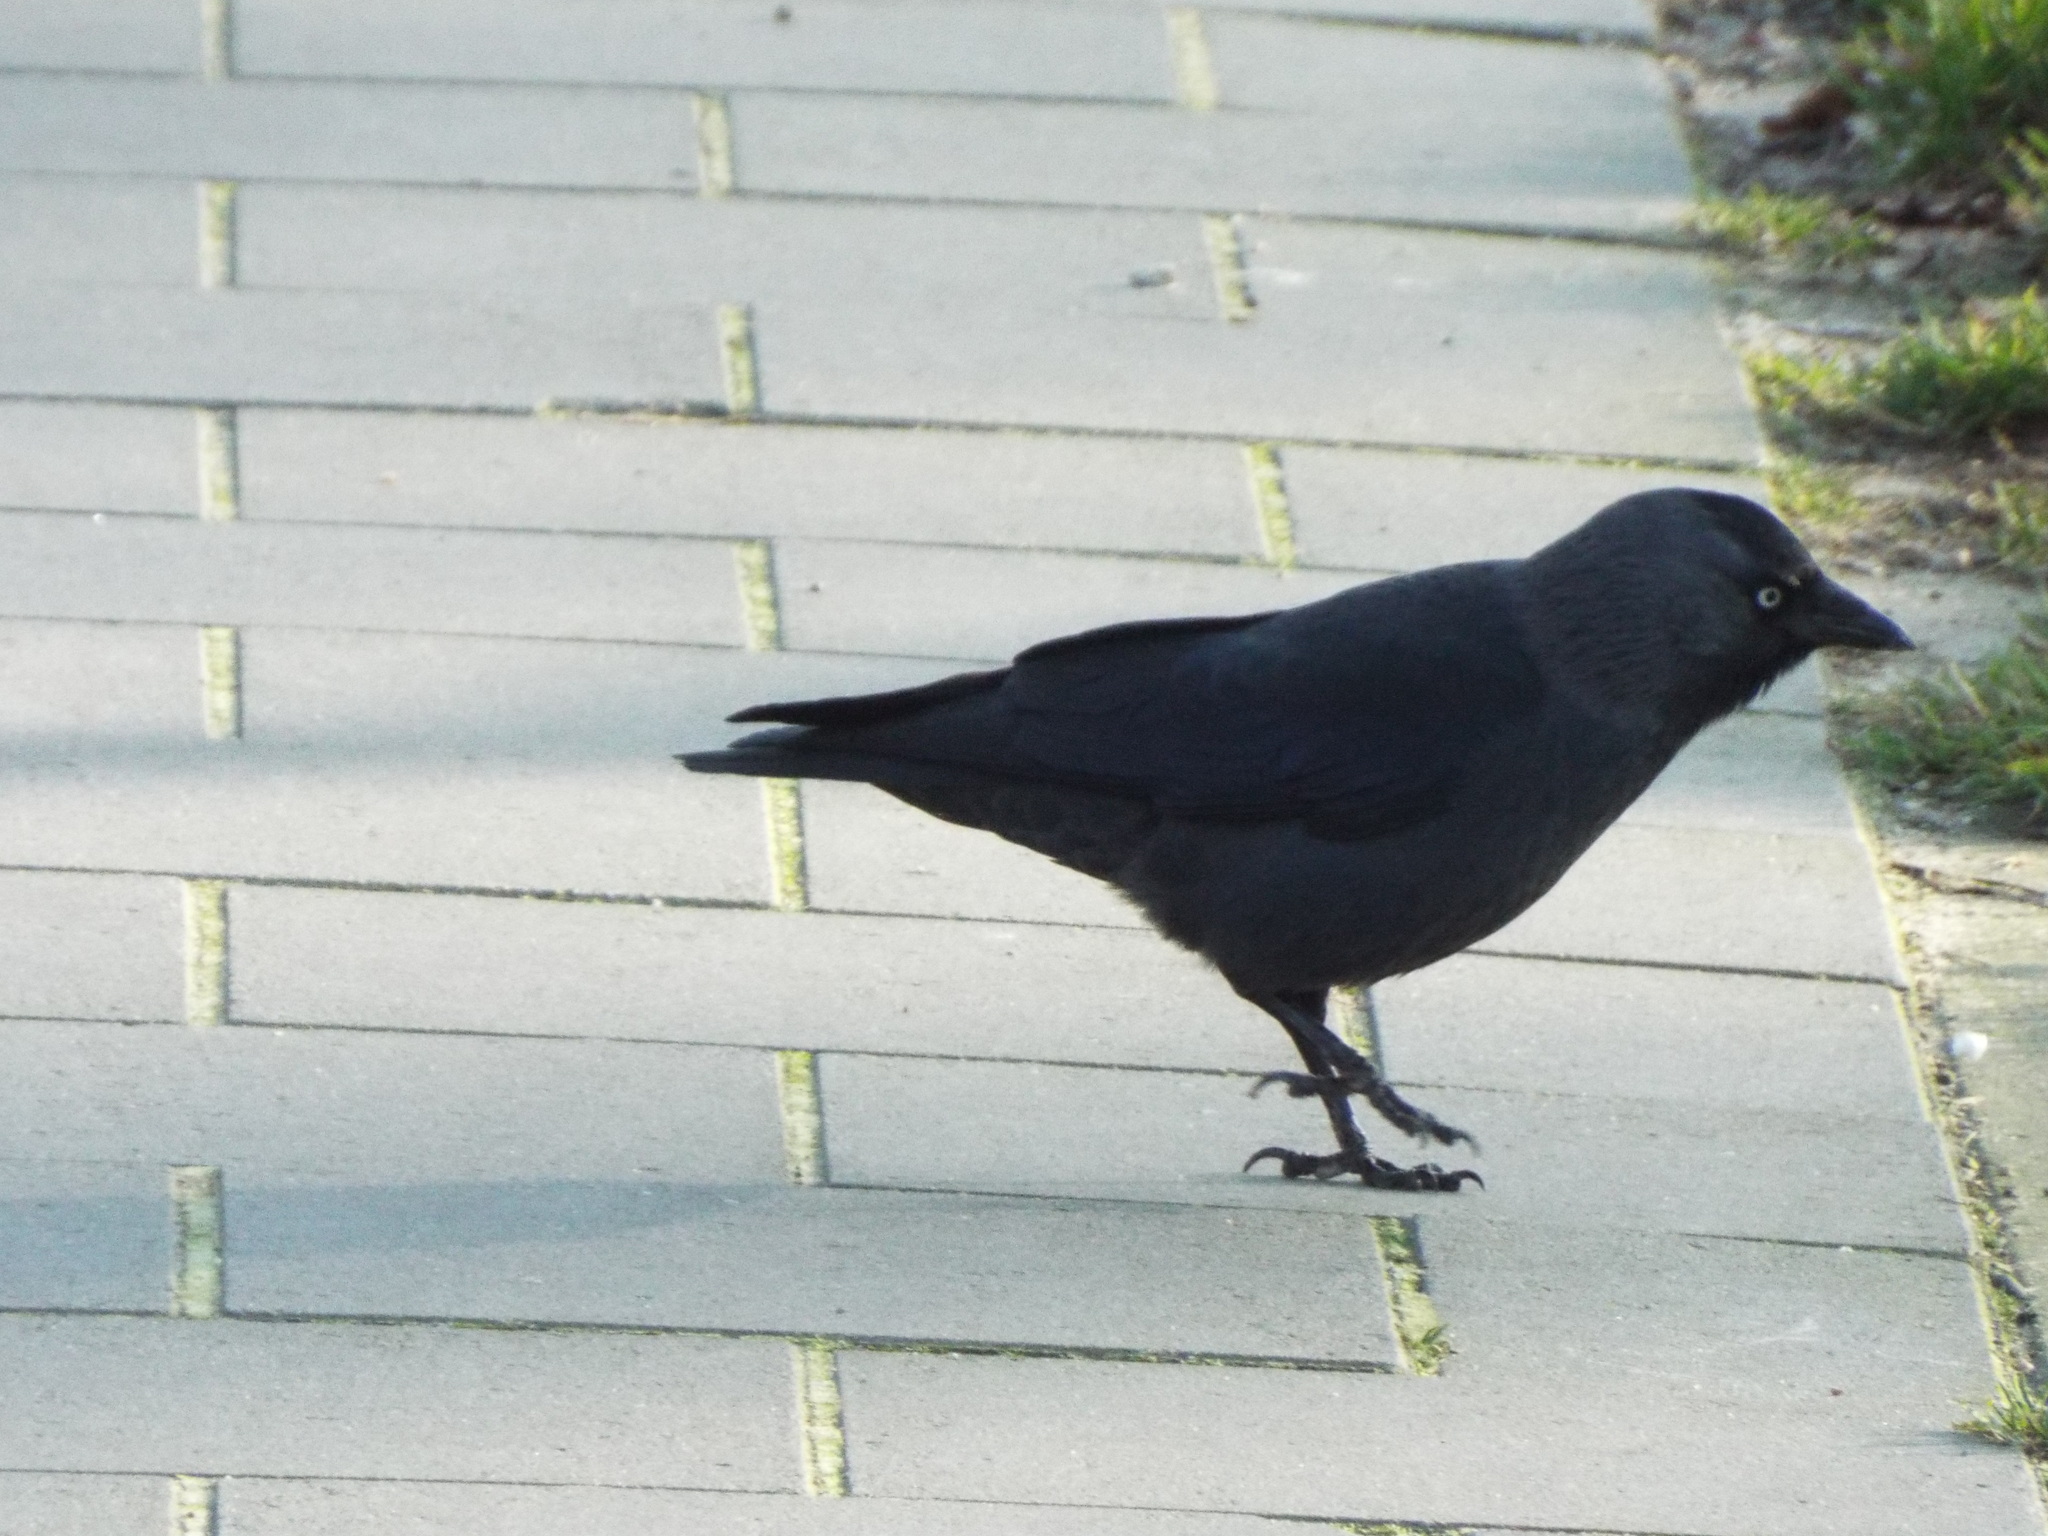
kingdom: Animalia
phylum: Chordata
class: Aves
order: Passeriformes
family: Corvidae
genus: Coloeus
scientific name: Coloeus monedula
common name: Western jackdaw
